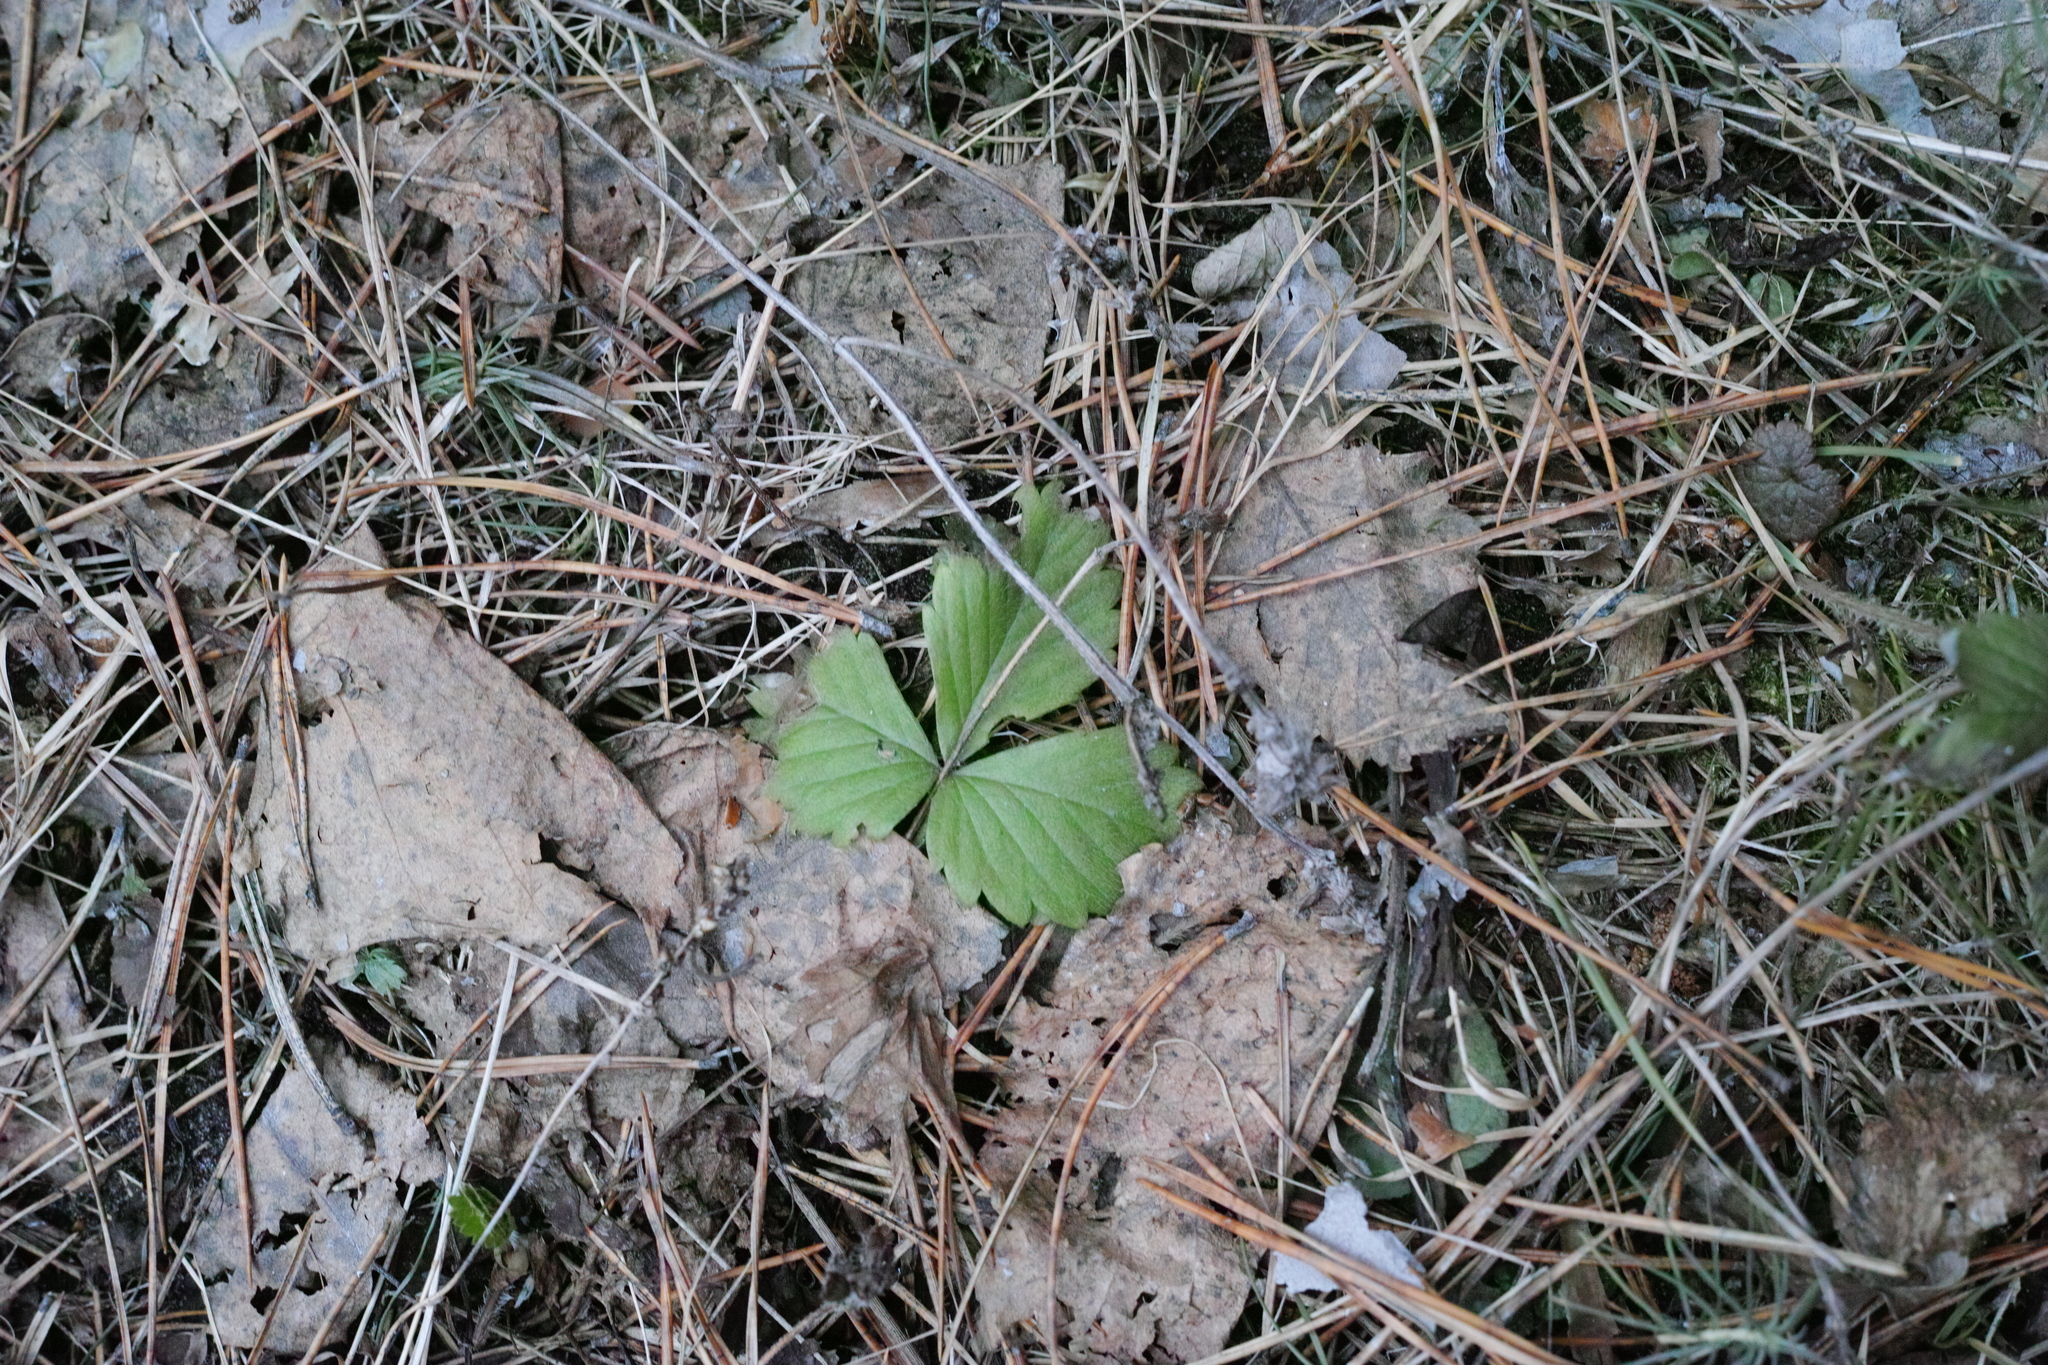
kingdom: Plantae
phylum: Tracheophyta
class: Magnoliopsida
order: Rosales
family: Rosaceae
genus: Fragaria
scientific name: Fragaria vesca
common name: Wild strawberry
